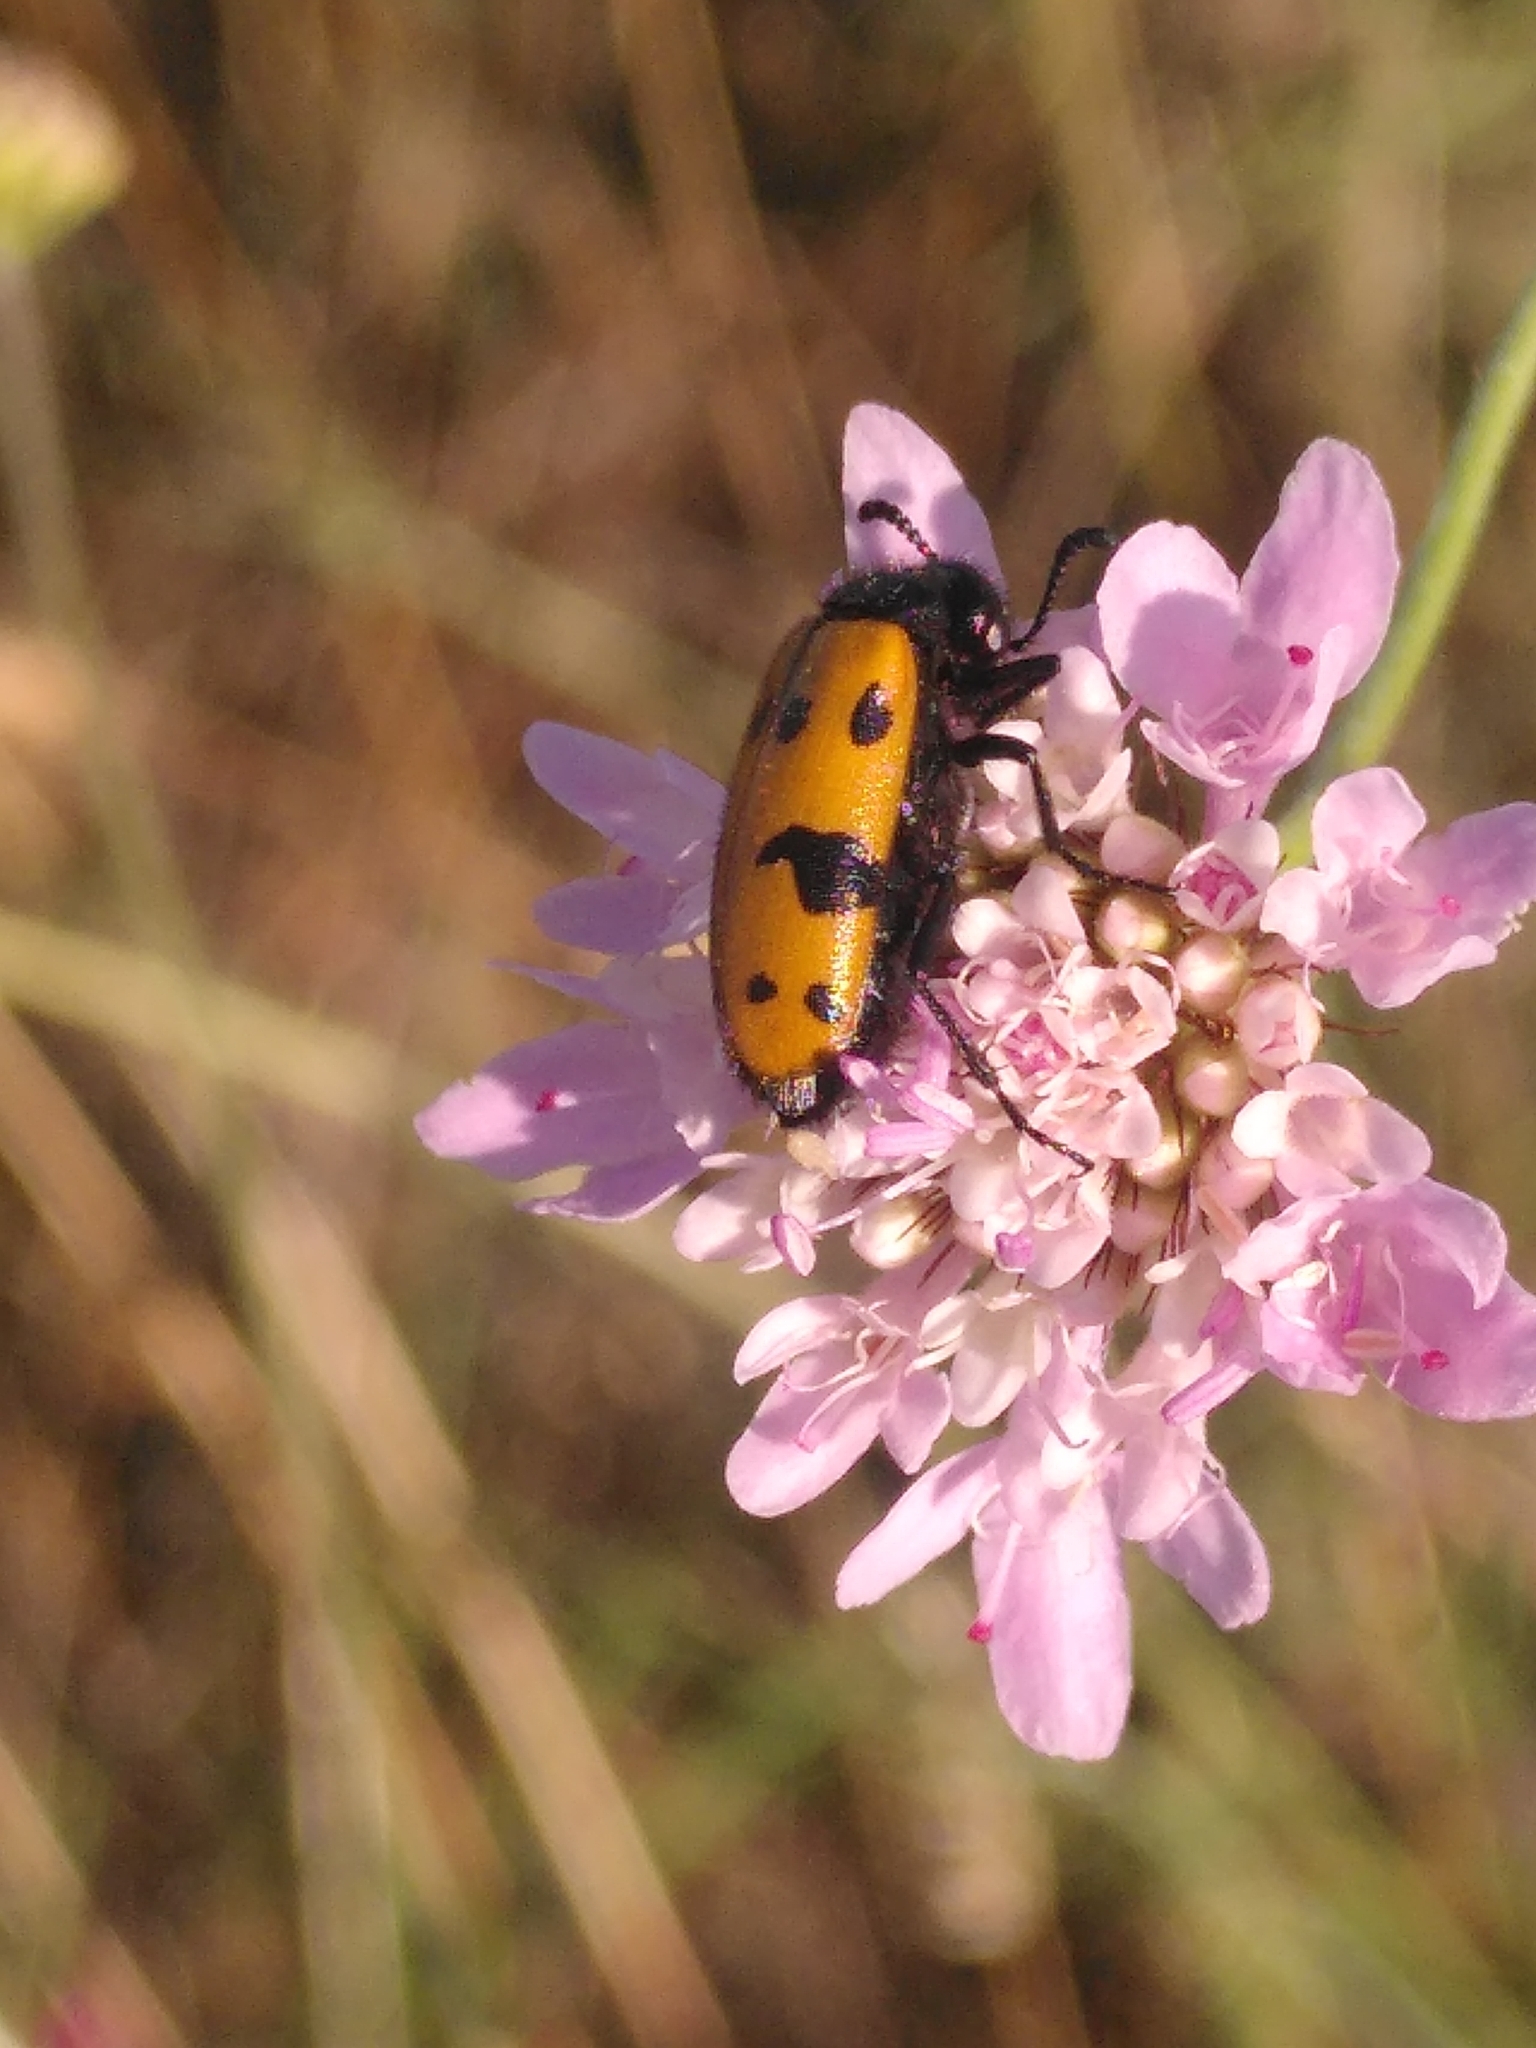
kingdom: Animalia
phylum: Arthropoda
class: Insecta
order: Coleoptera
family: Meloidae
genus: Mylabris
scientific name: Mylabris connata
